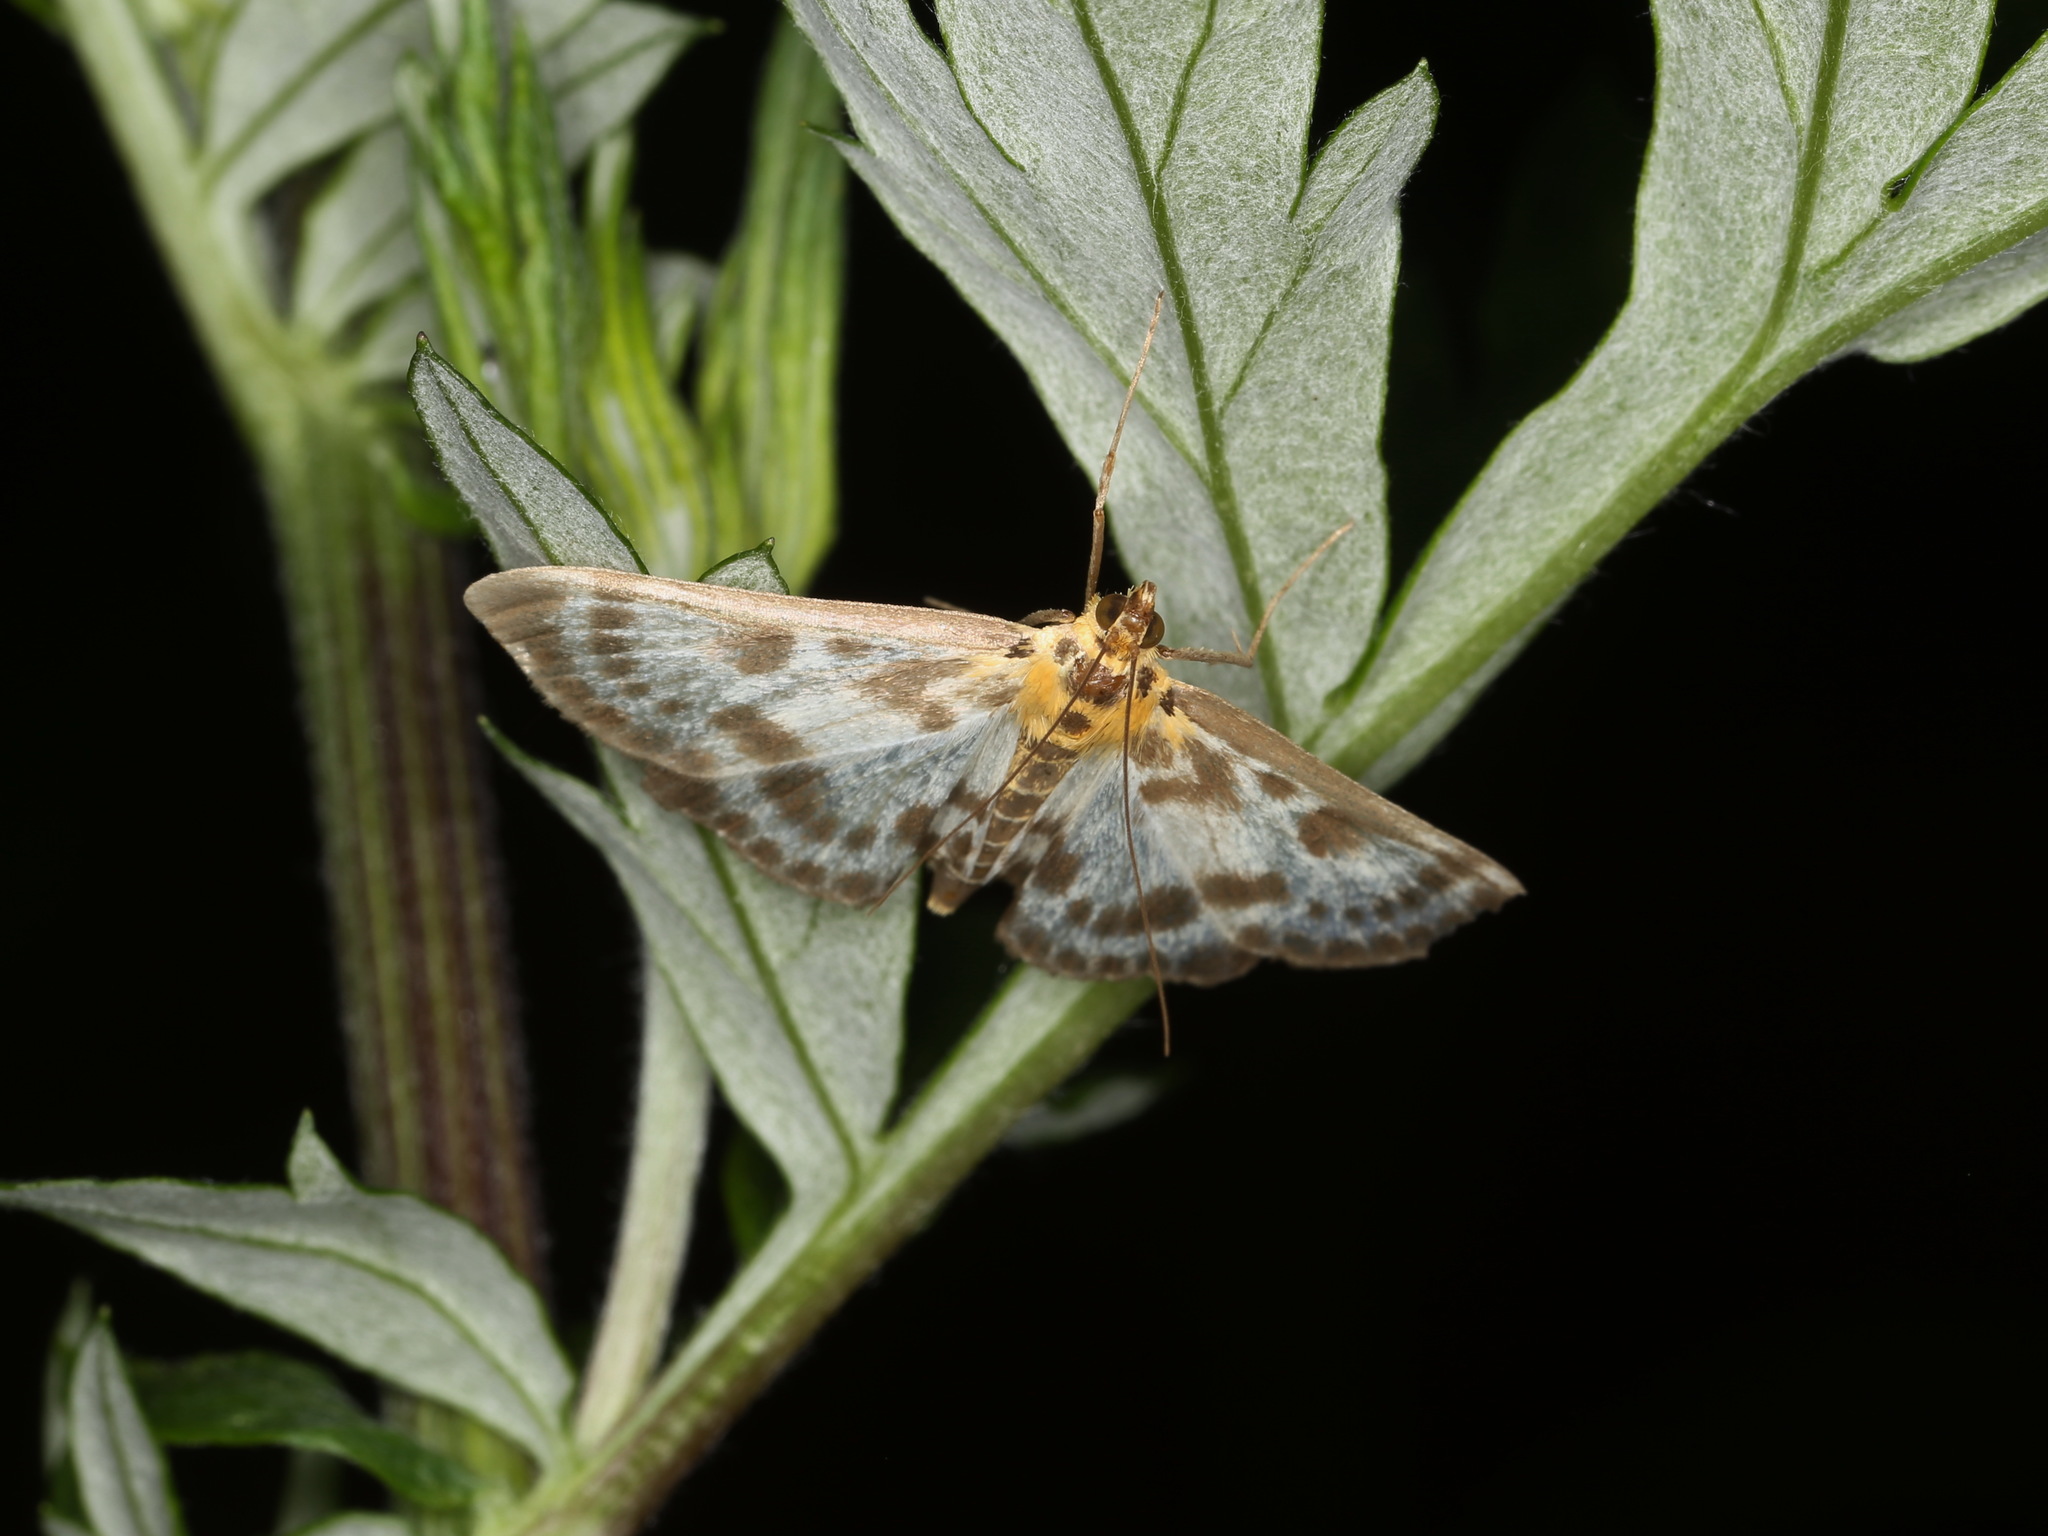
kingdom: Animalia
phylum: Arthropoda
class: Insecta
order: Lepidoptera
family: Crambidae
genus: Anania
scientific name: Anania hortulata
